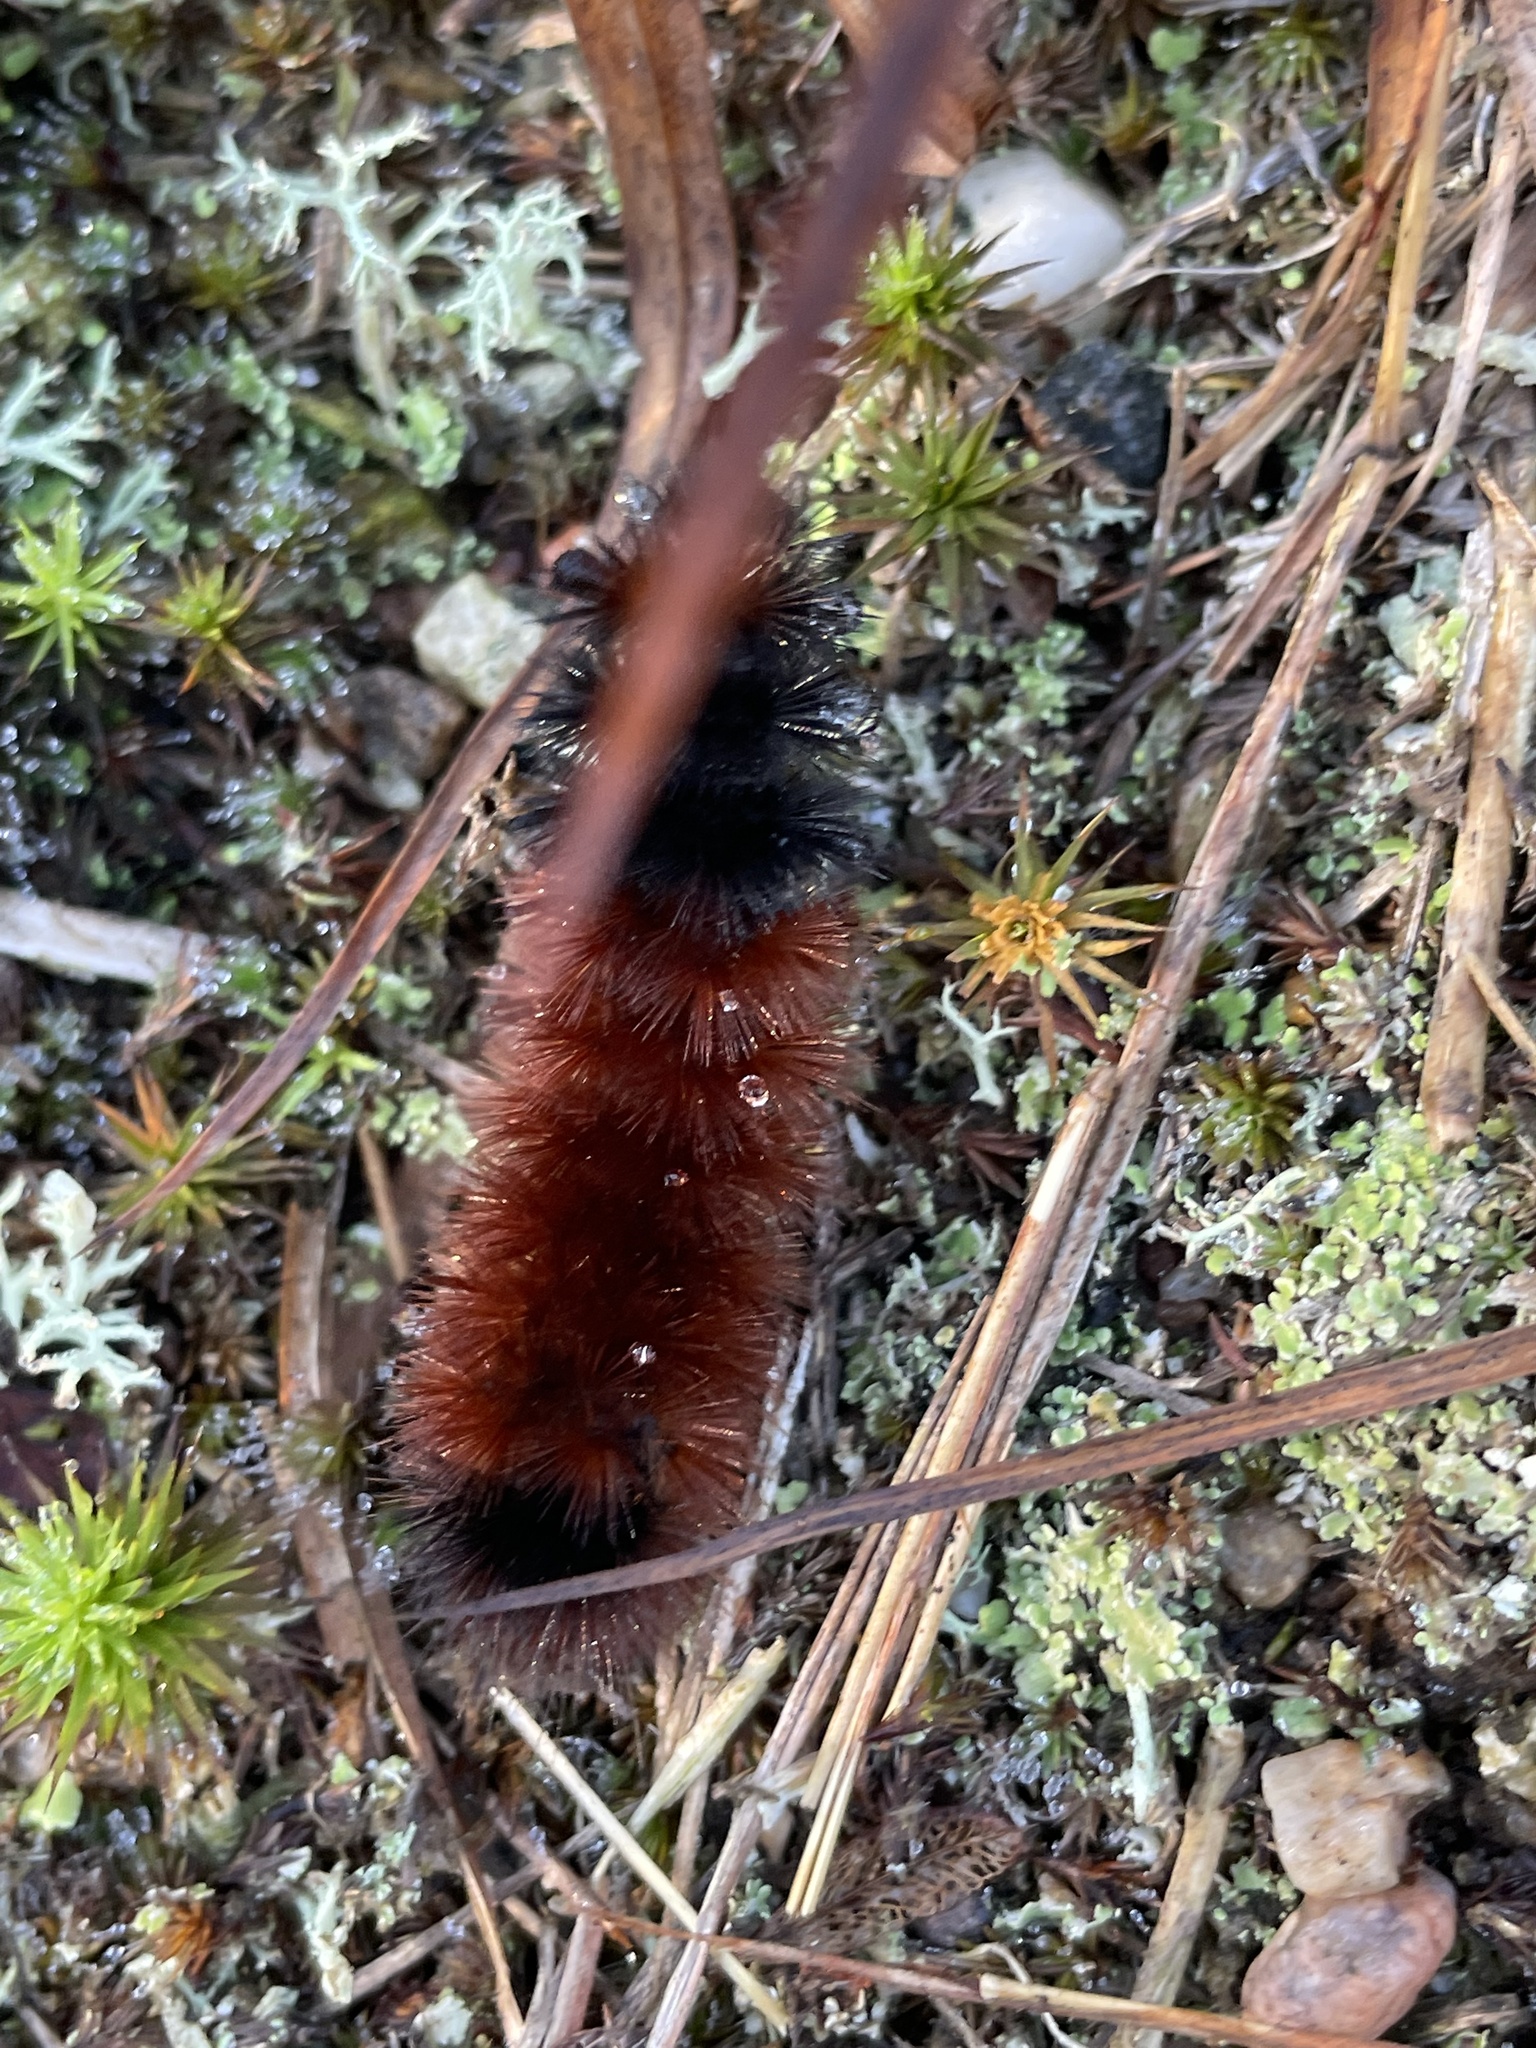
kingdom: Animalia
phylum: Arthropoda
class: Insecta
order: Lepidoptera
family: Erebidae
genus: Pyrrharctia
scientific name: Pyrrharctia isabella
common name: Isabella tiger moth
